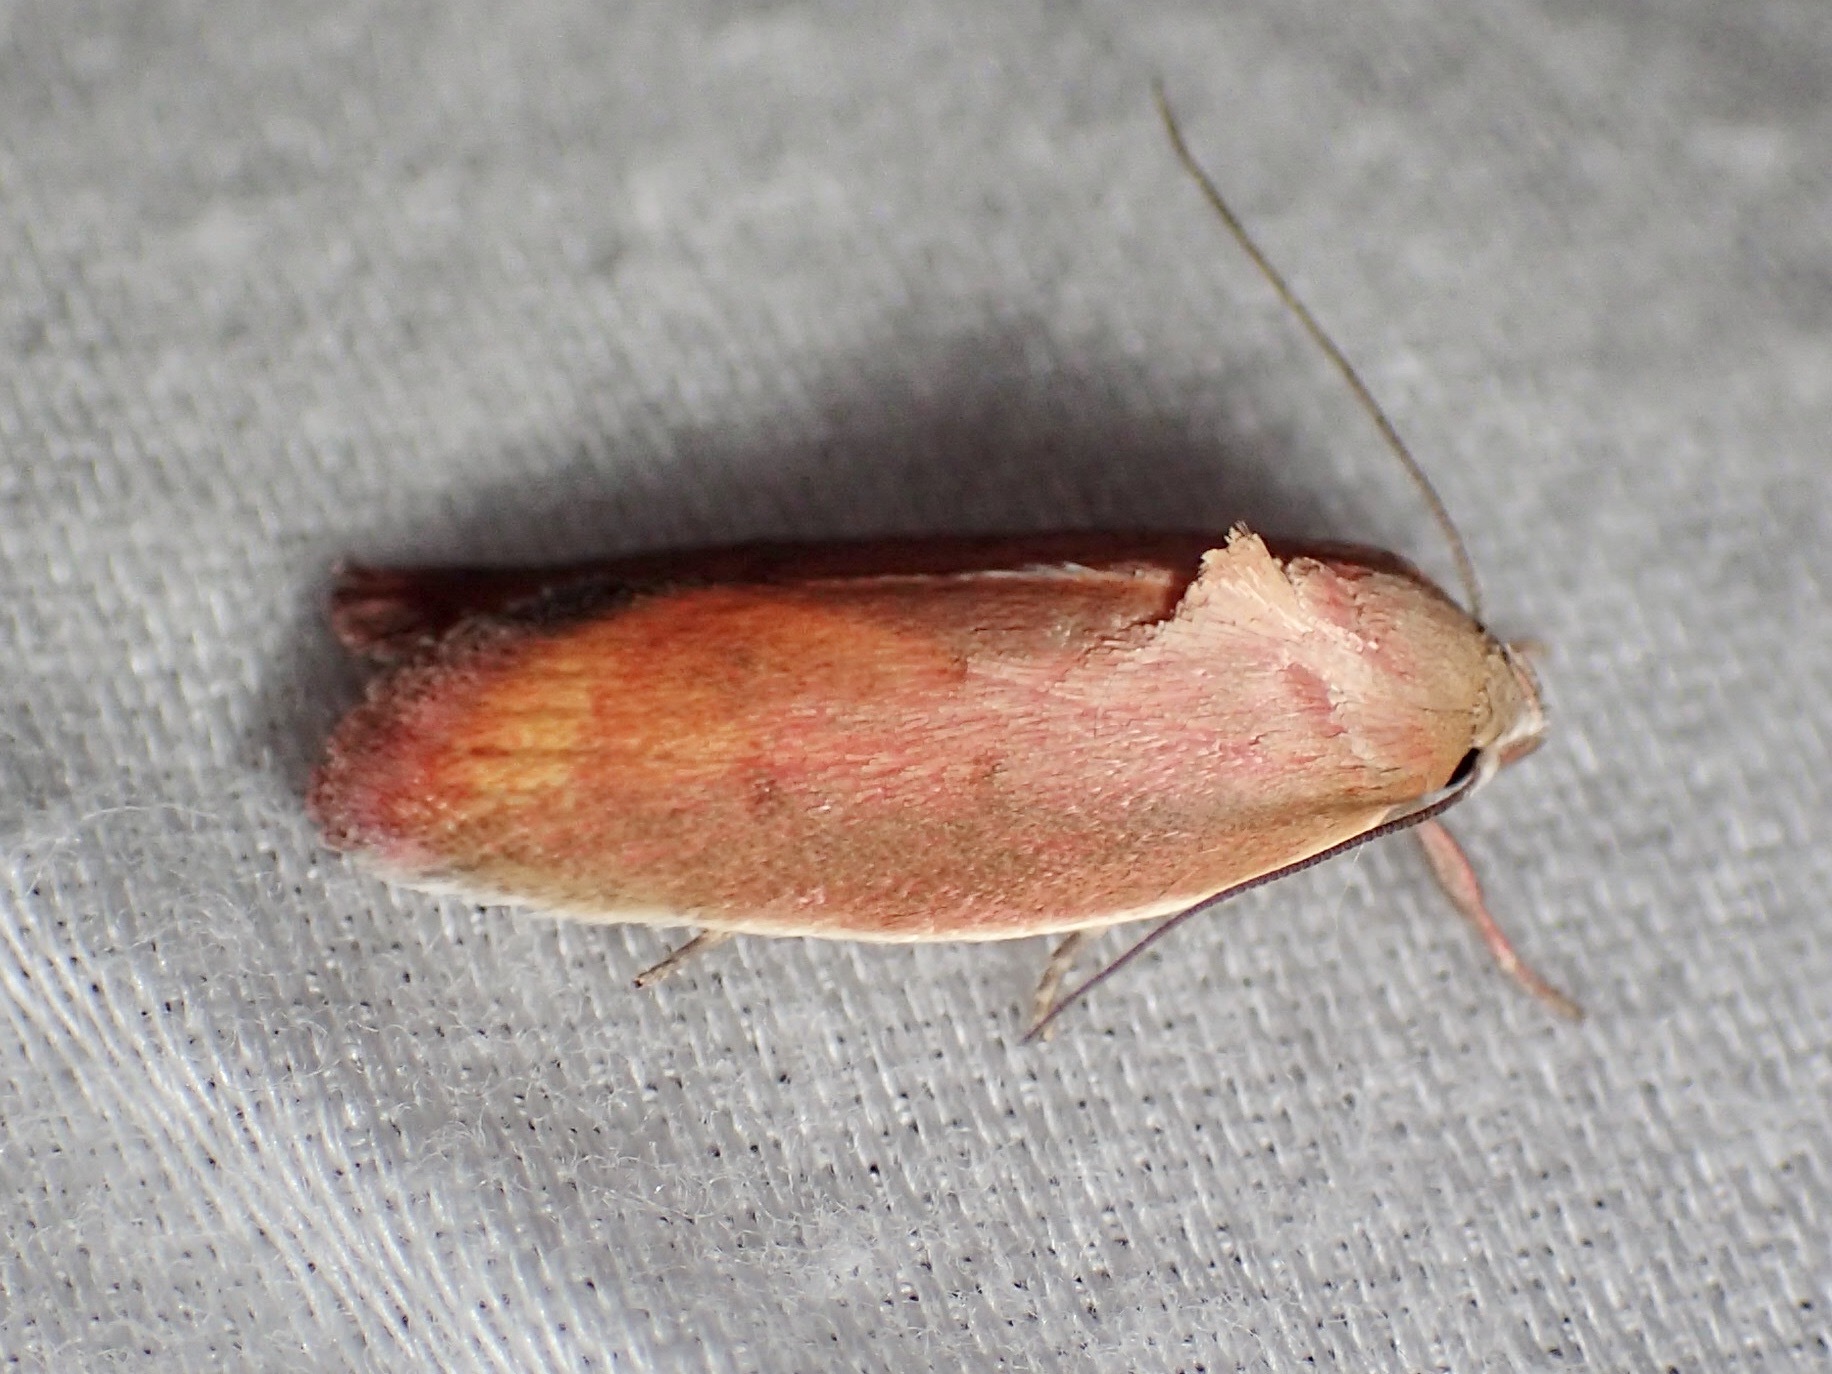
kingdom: Animalia
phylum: Arthropoda
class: Insecta
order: Lepidoptera
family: Oecophoridae
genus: Ptyoptila
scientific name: Ptyoptila matutinella
